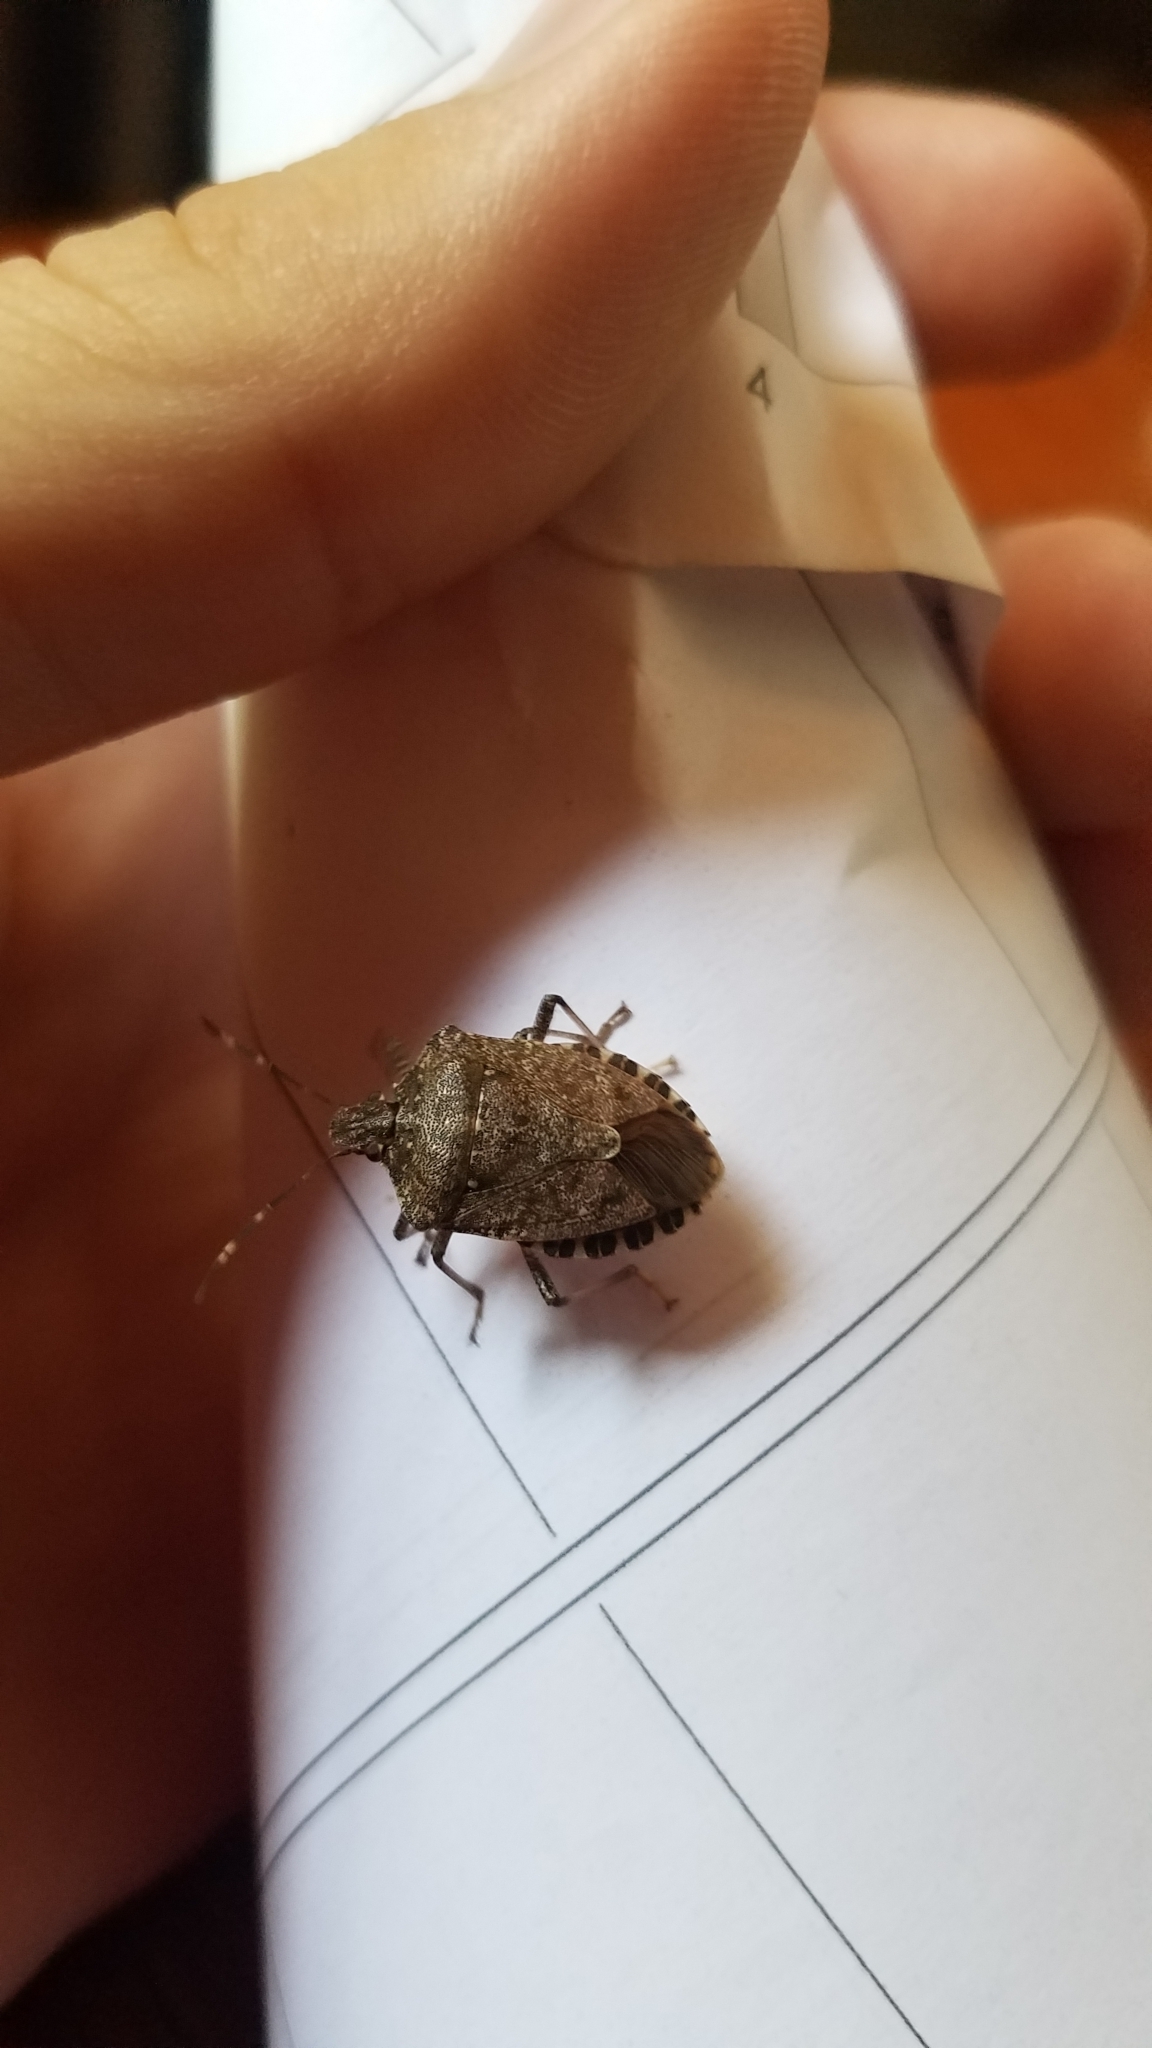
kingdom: Animalia
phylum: Arthropoda
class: Insecta
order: Hemiptera
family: Pentatomidae
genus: Halyomorpha
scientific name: Halyomorpha halys
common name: Brown marmorated stink bug
